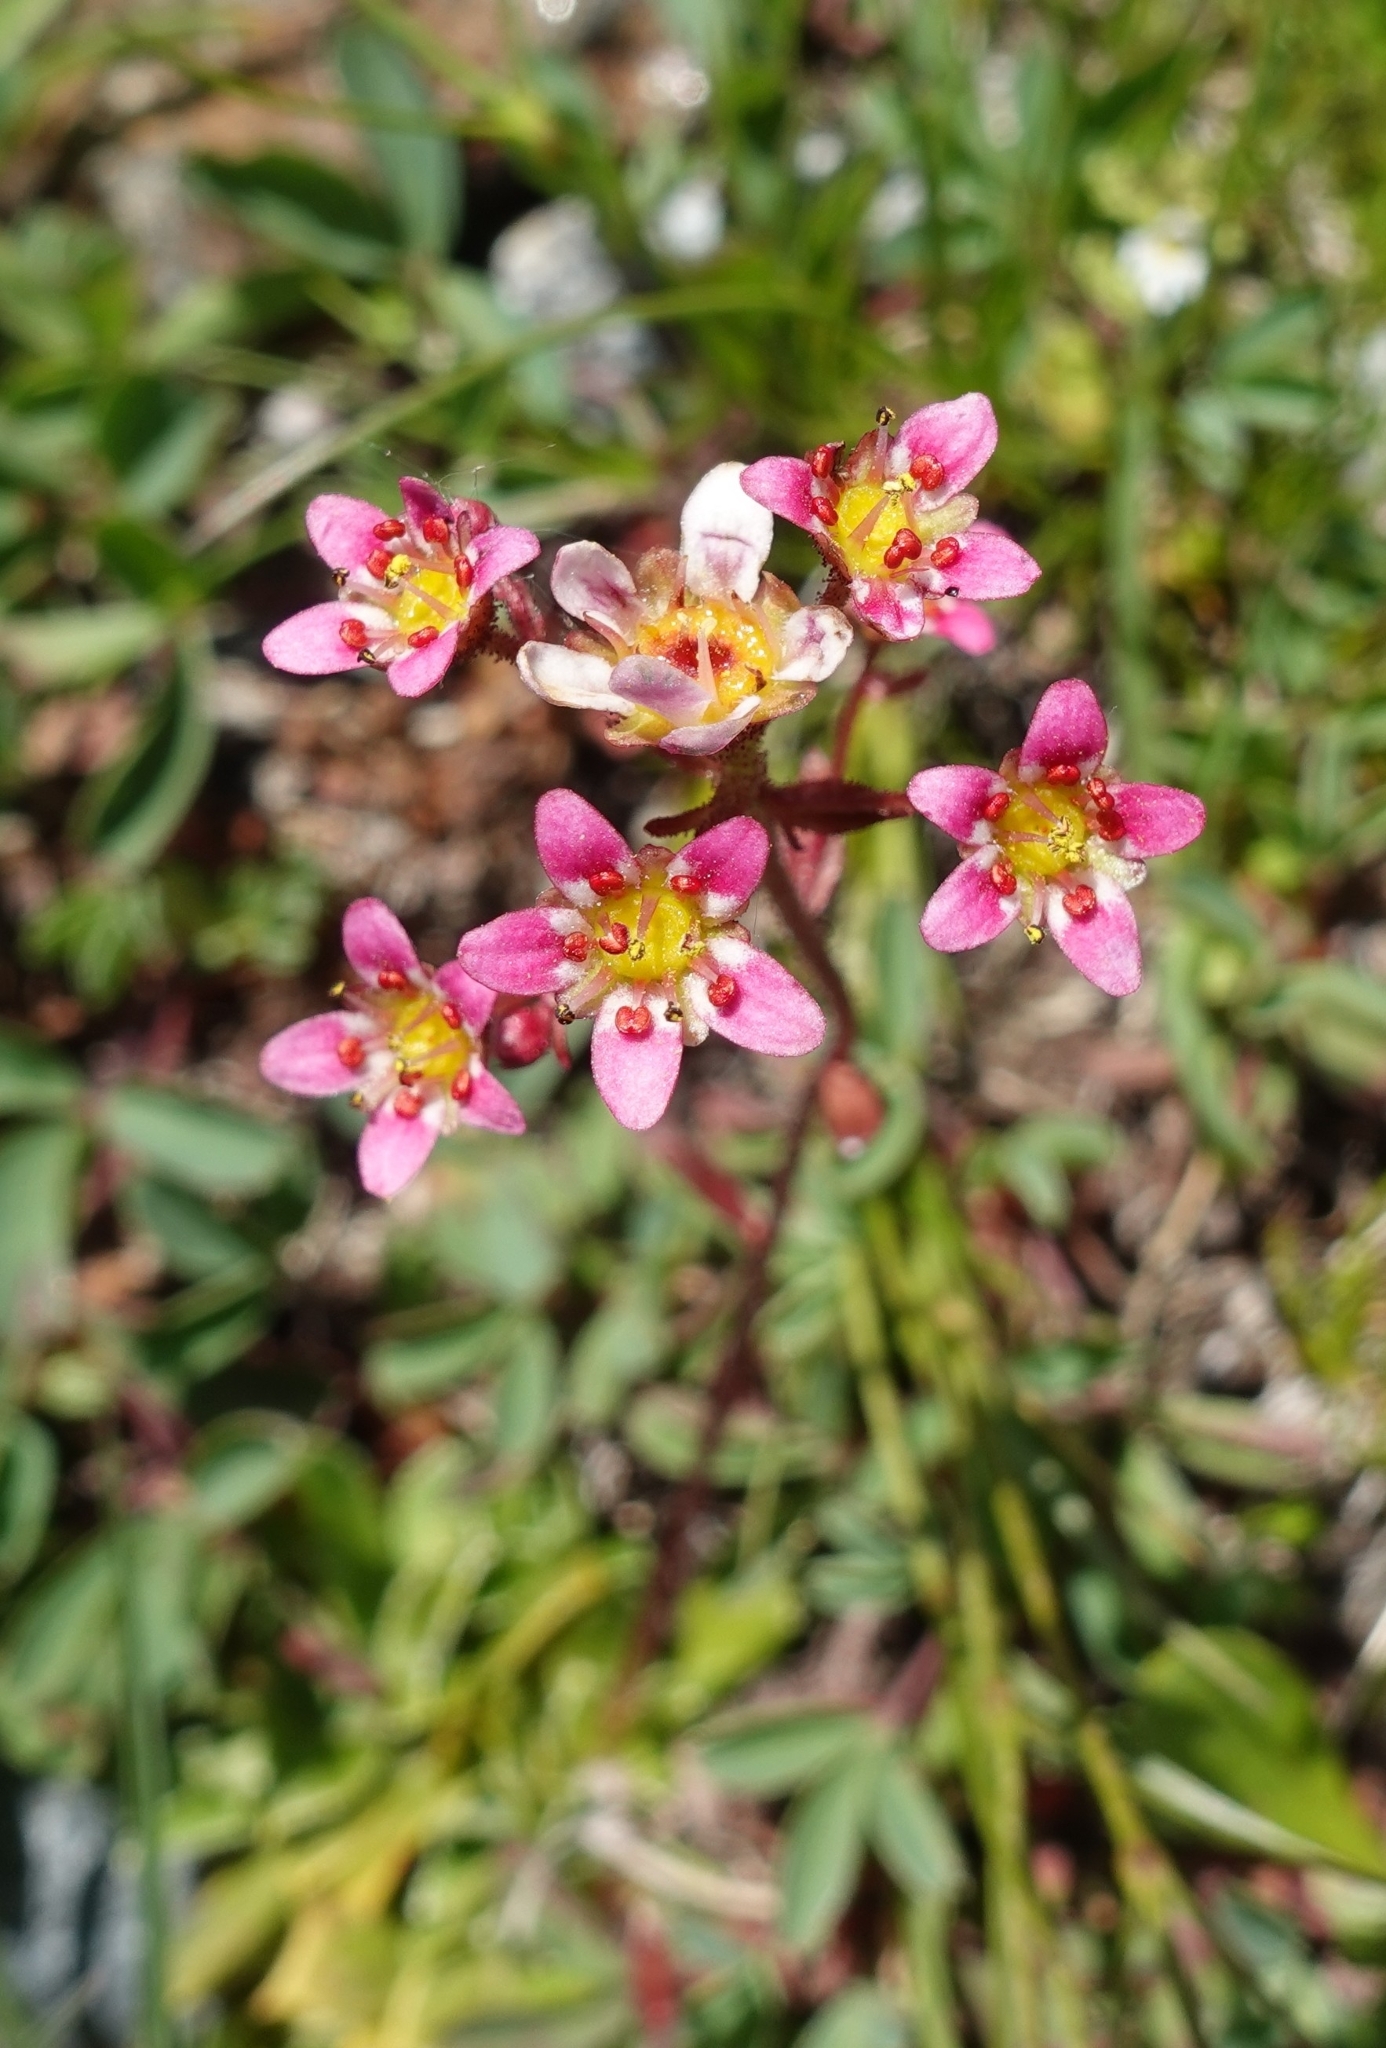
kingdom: Plantae
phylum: Tracheophyta
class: Magnoliopsida
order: Saxifragales
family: Saxifragaceae
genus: Saxifraga
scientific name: Saxifraga kolenatiana
